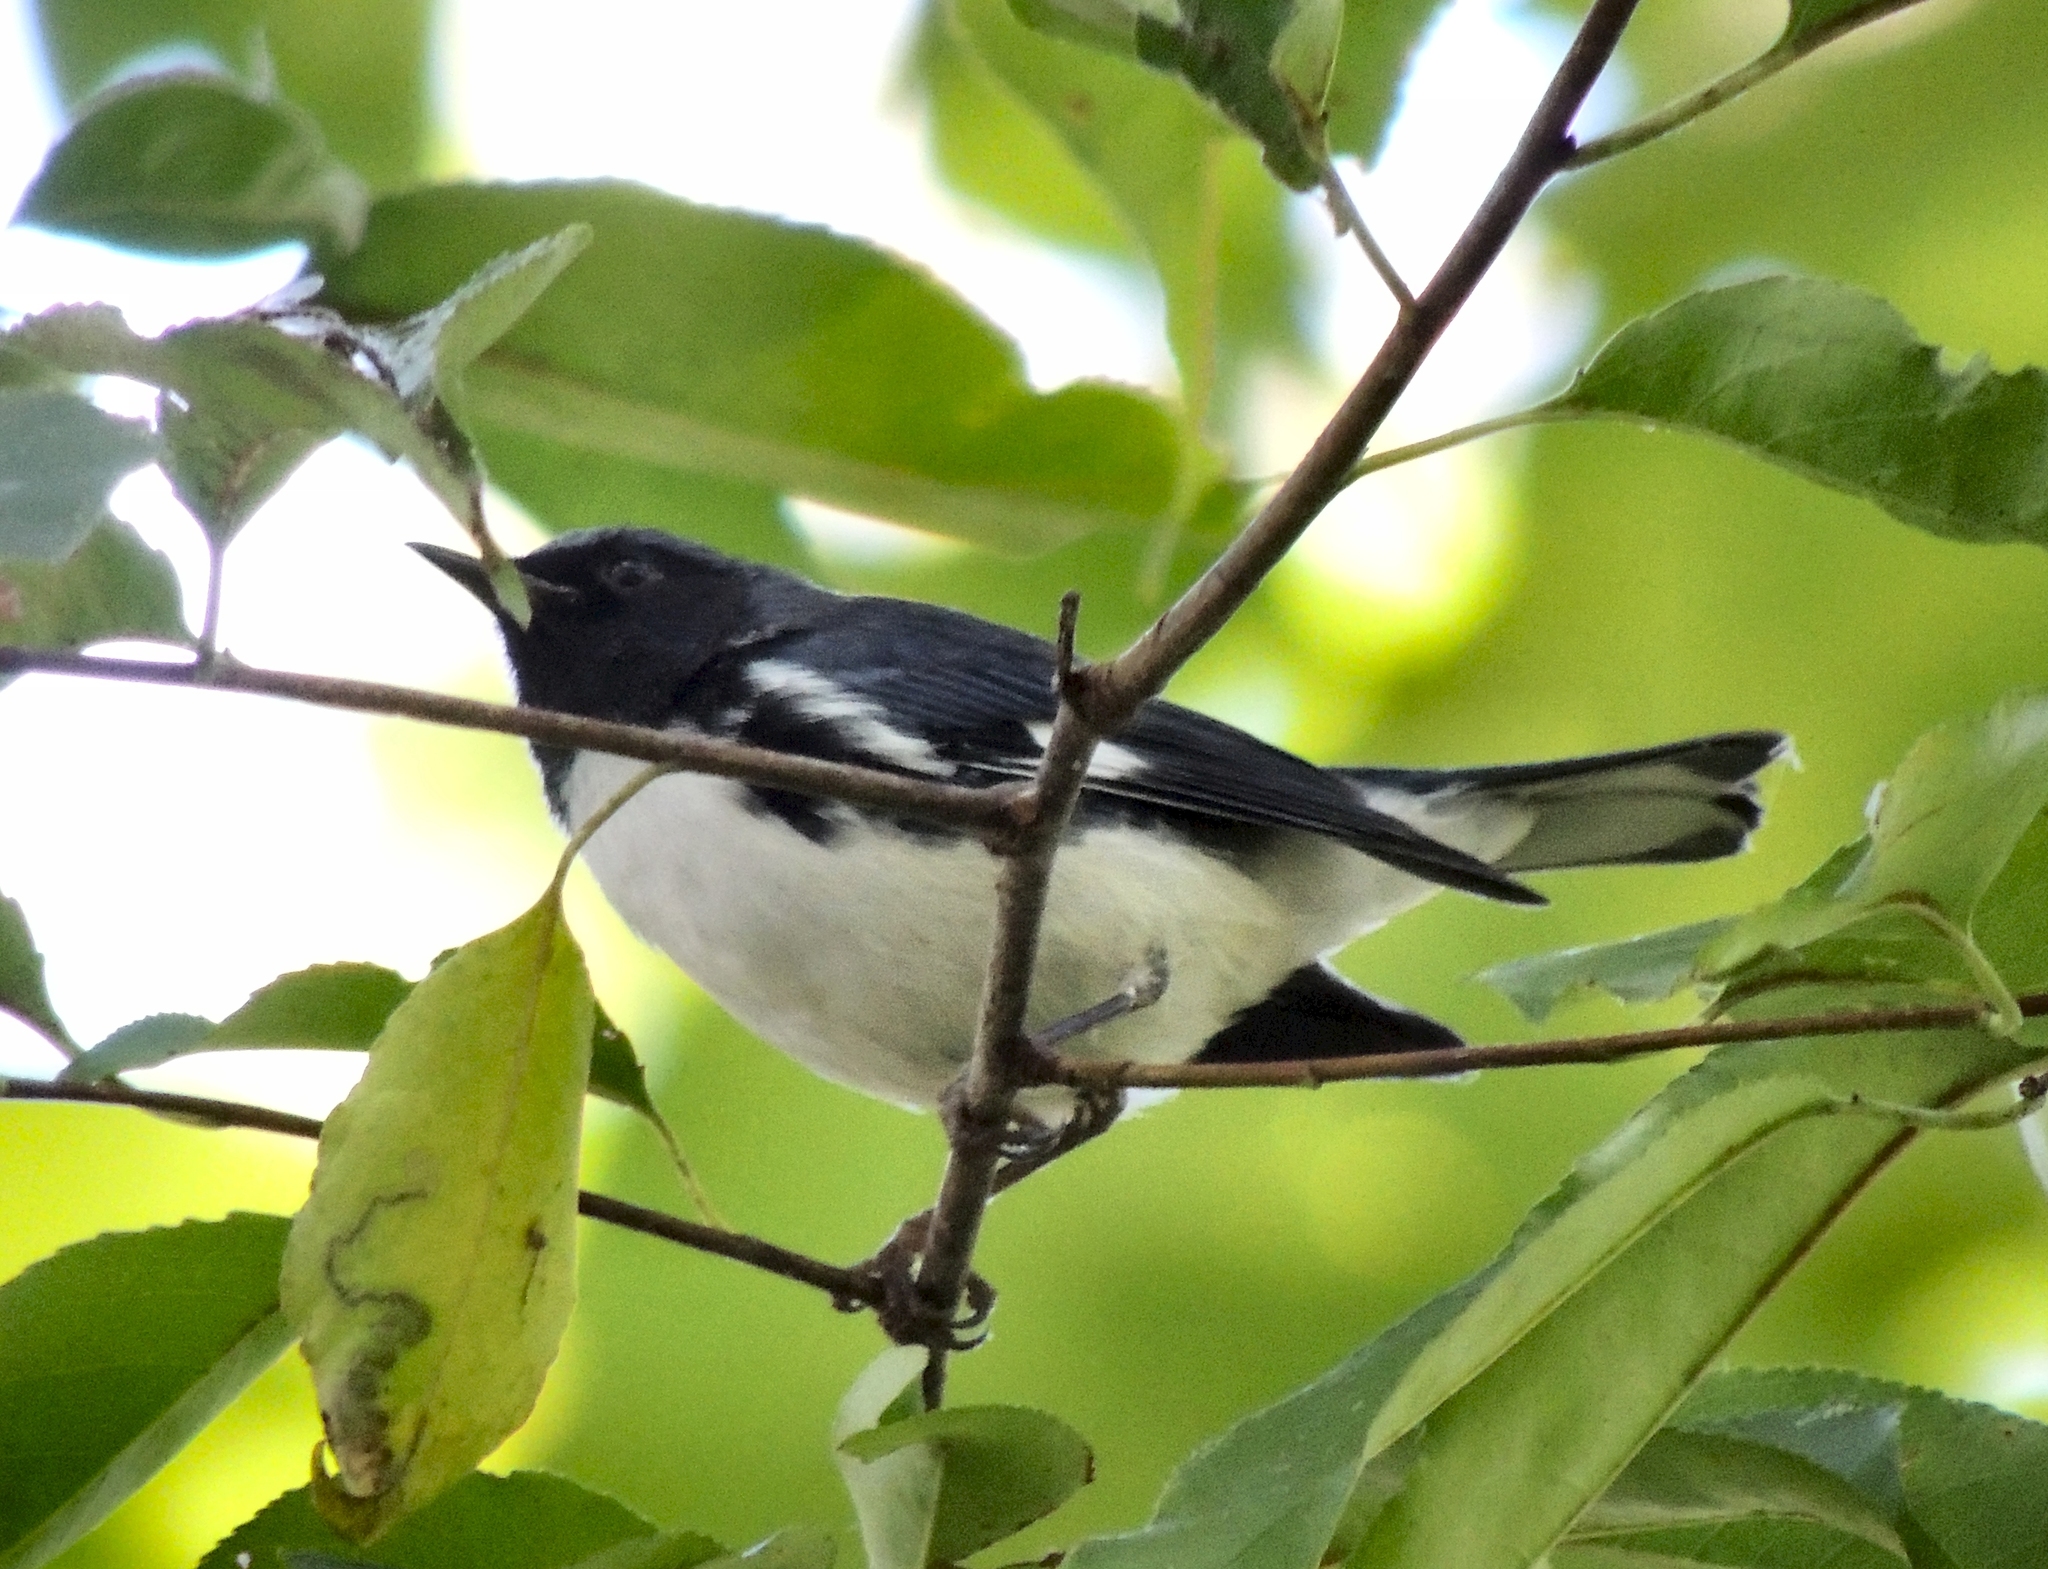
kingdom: Animalia
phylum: Chordata
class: Aves
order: Passeriformes
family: Parulidae
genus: Setophaga
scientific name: Setophaga caerulescens
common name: Black-throated blue warbler
